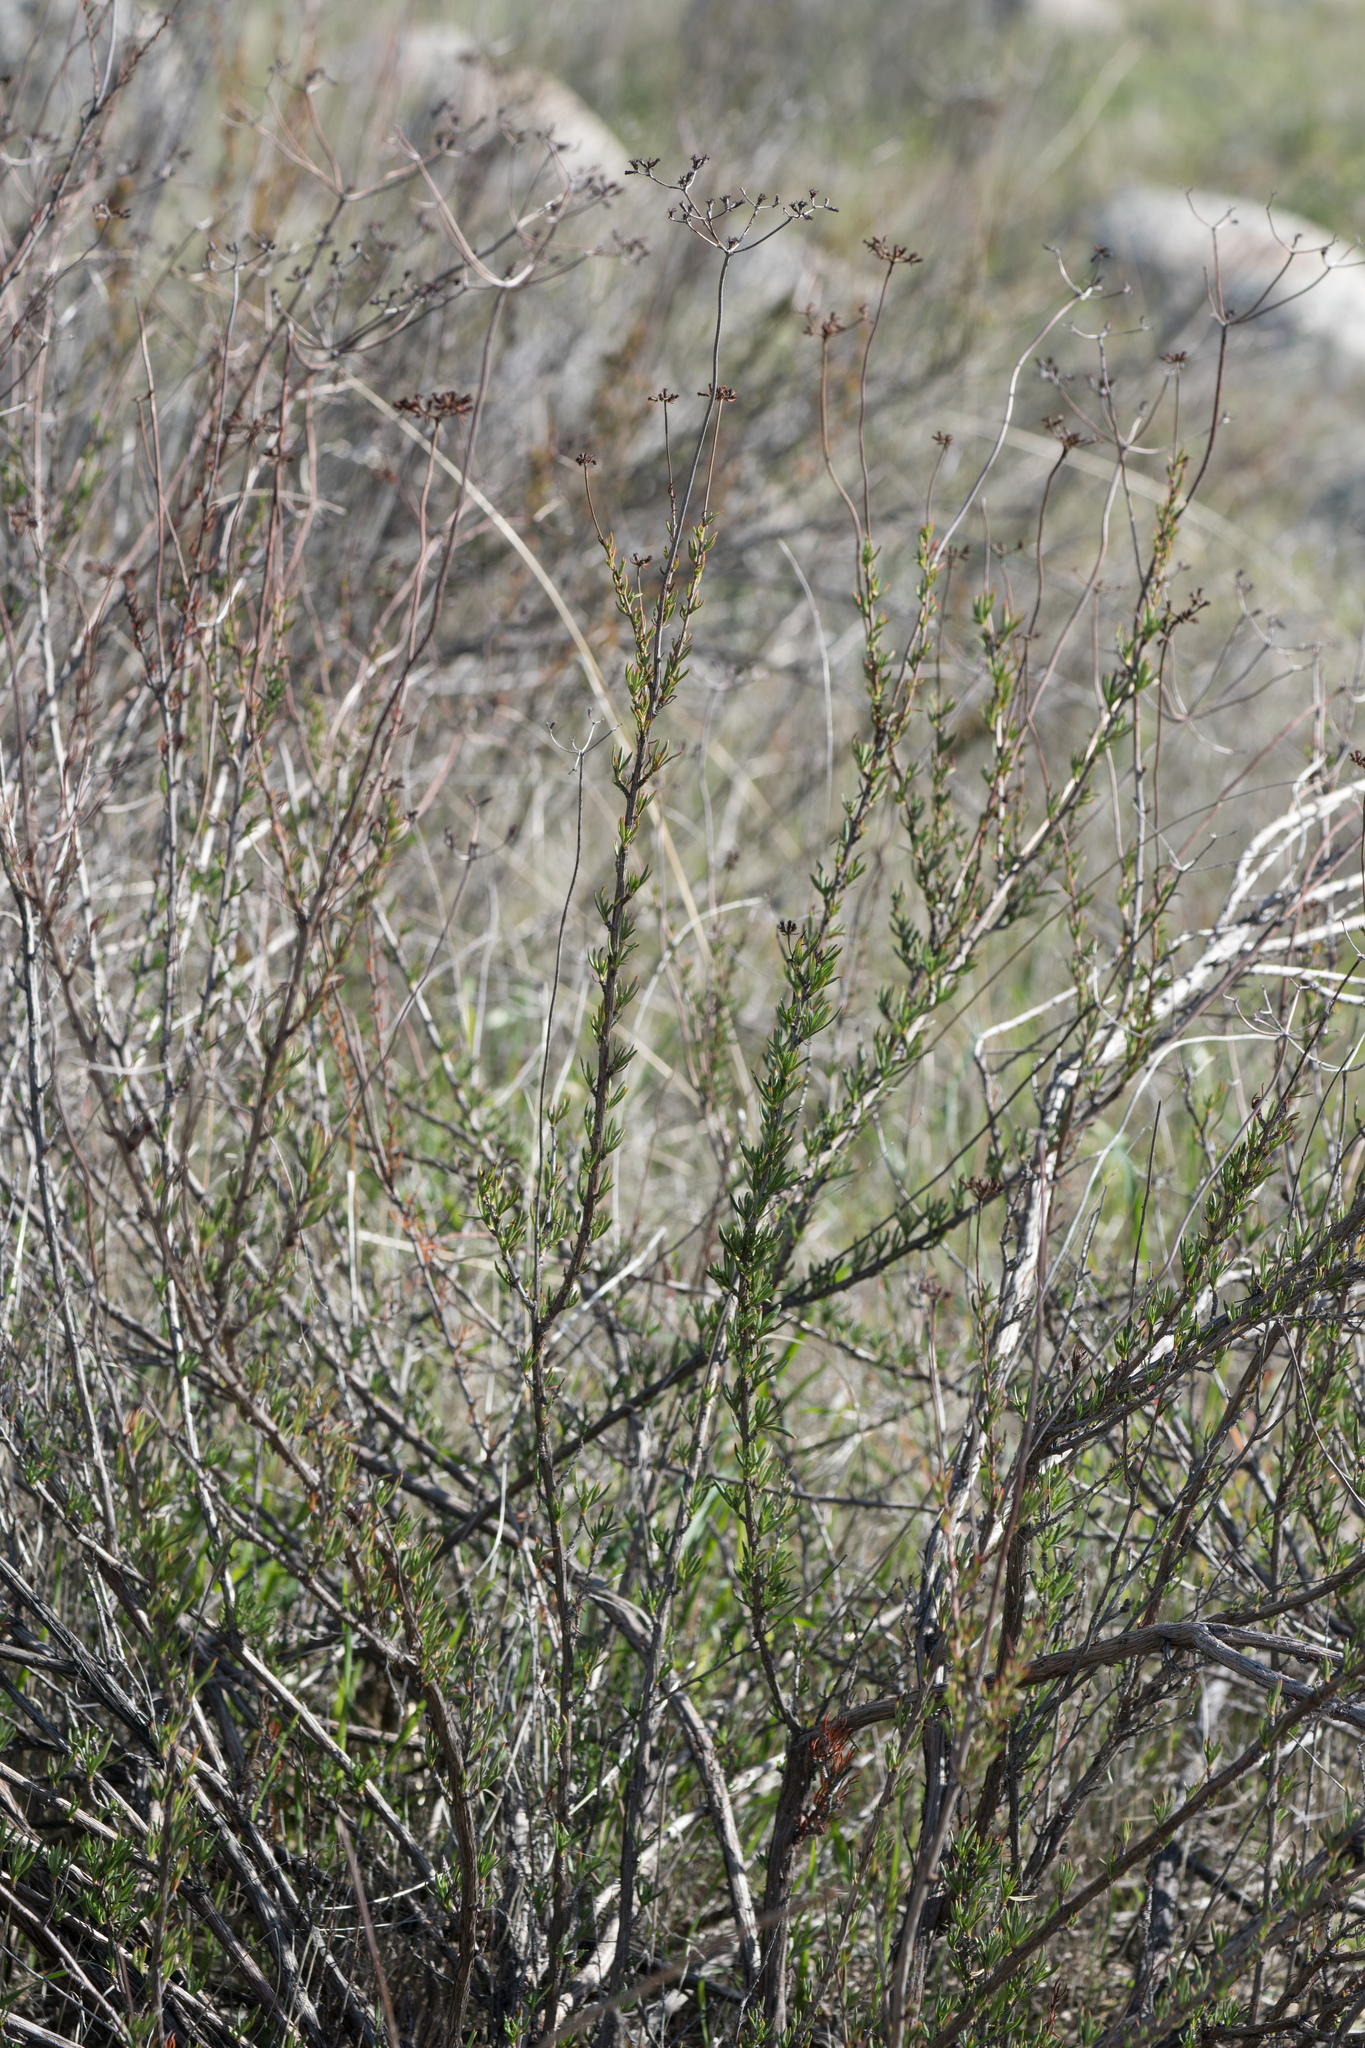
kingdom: Plantae
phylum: Tracheophyta
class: Magnoliopsida
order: Caryophyllales
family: Polygonaceae
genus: Eriogonum
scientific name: Eriogonum fasciculatum
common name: California wild buckwheat
